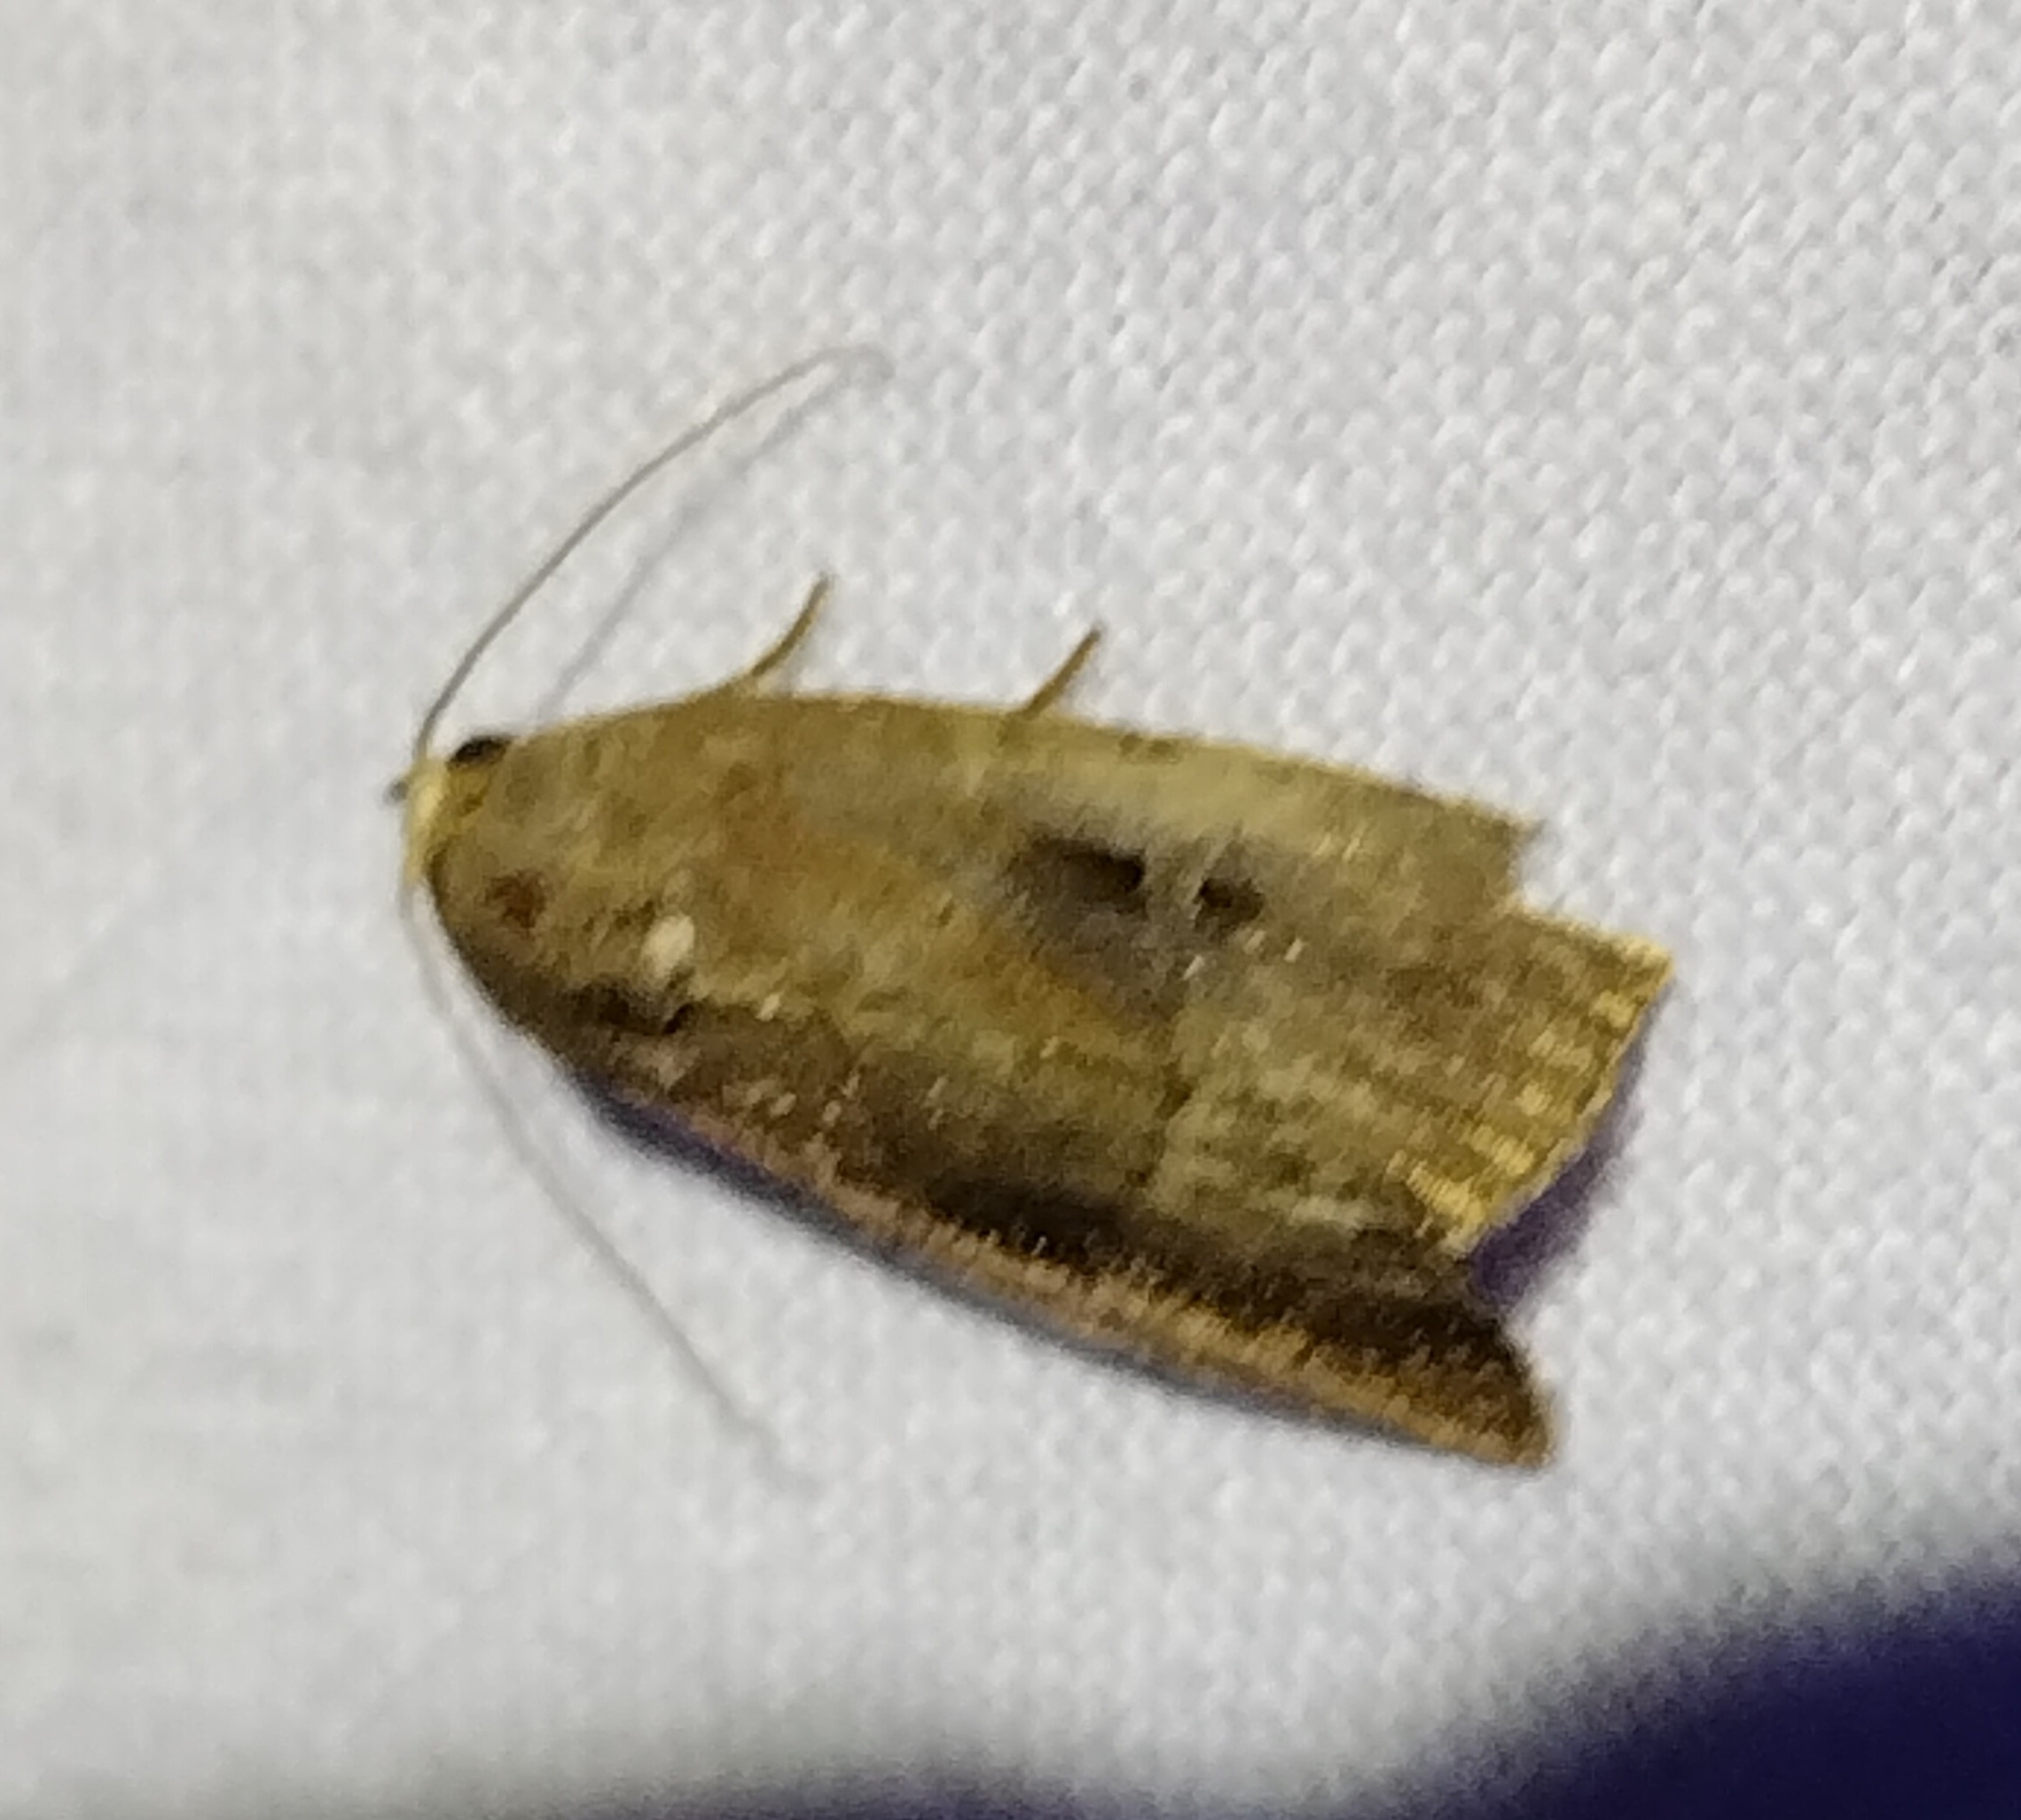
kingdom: Animalia
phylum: Arthropoda
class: Insecta
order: Lepidoptera
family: Noctuidae
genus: Elaphria
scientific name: Elaphria nucicolora
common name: Sugarcane midget moth
